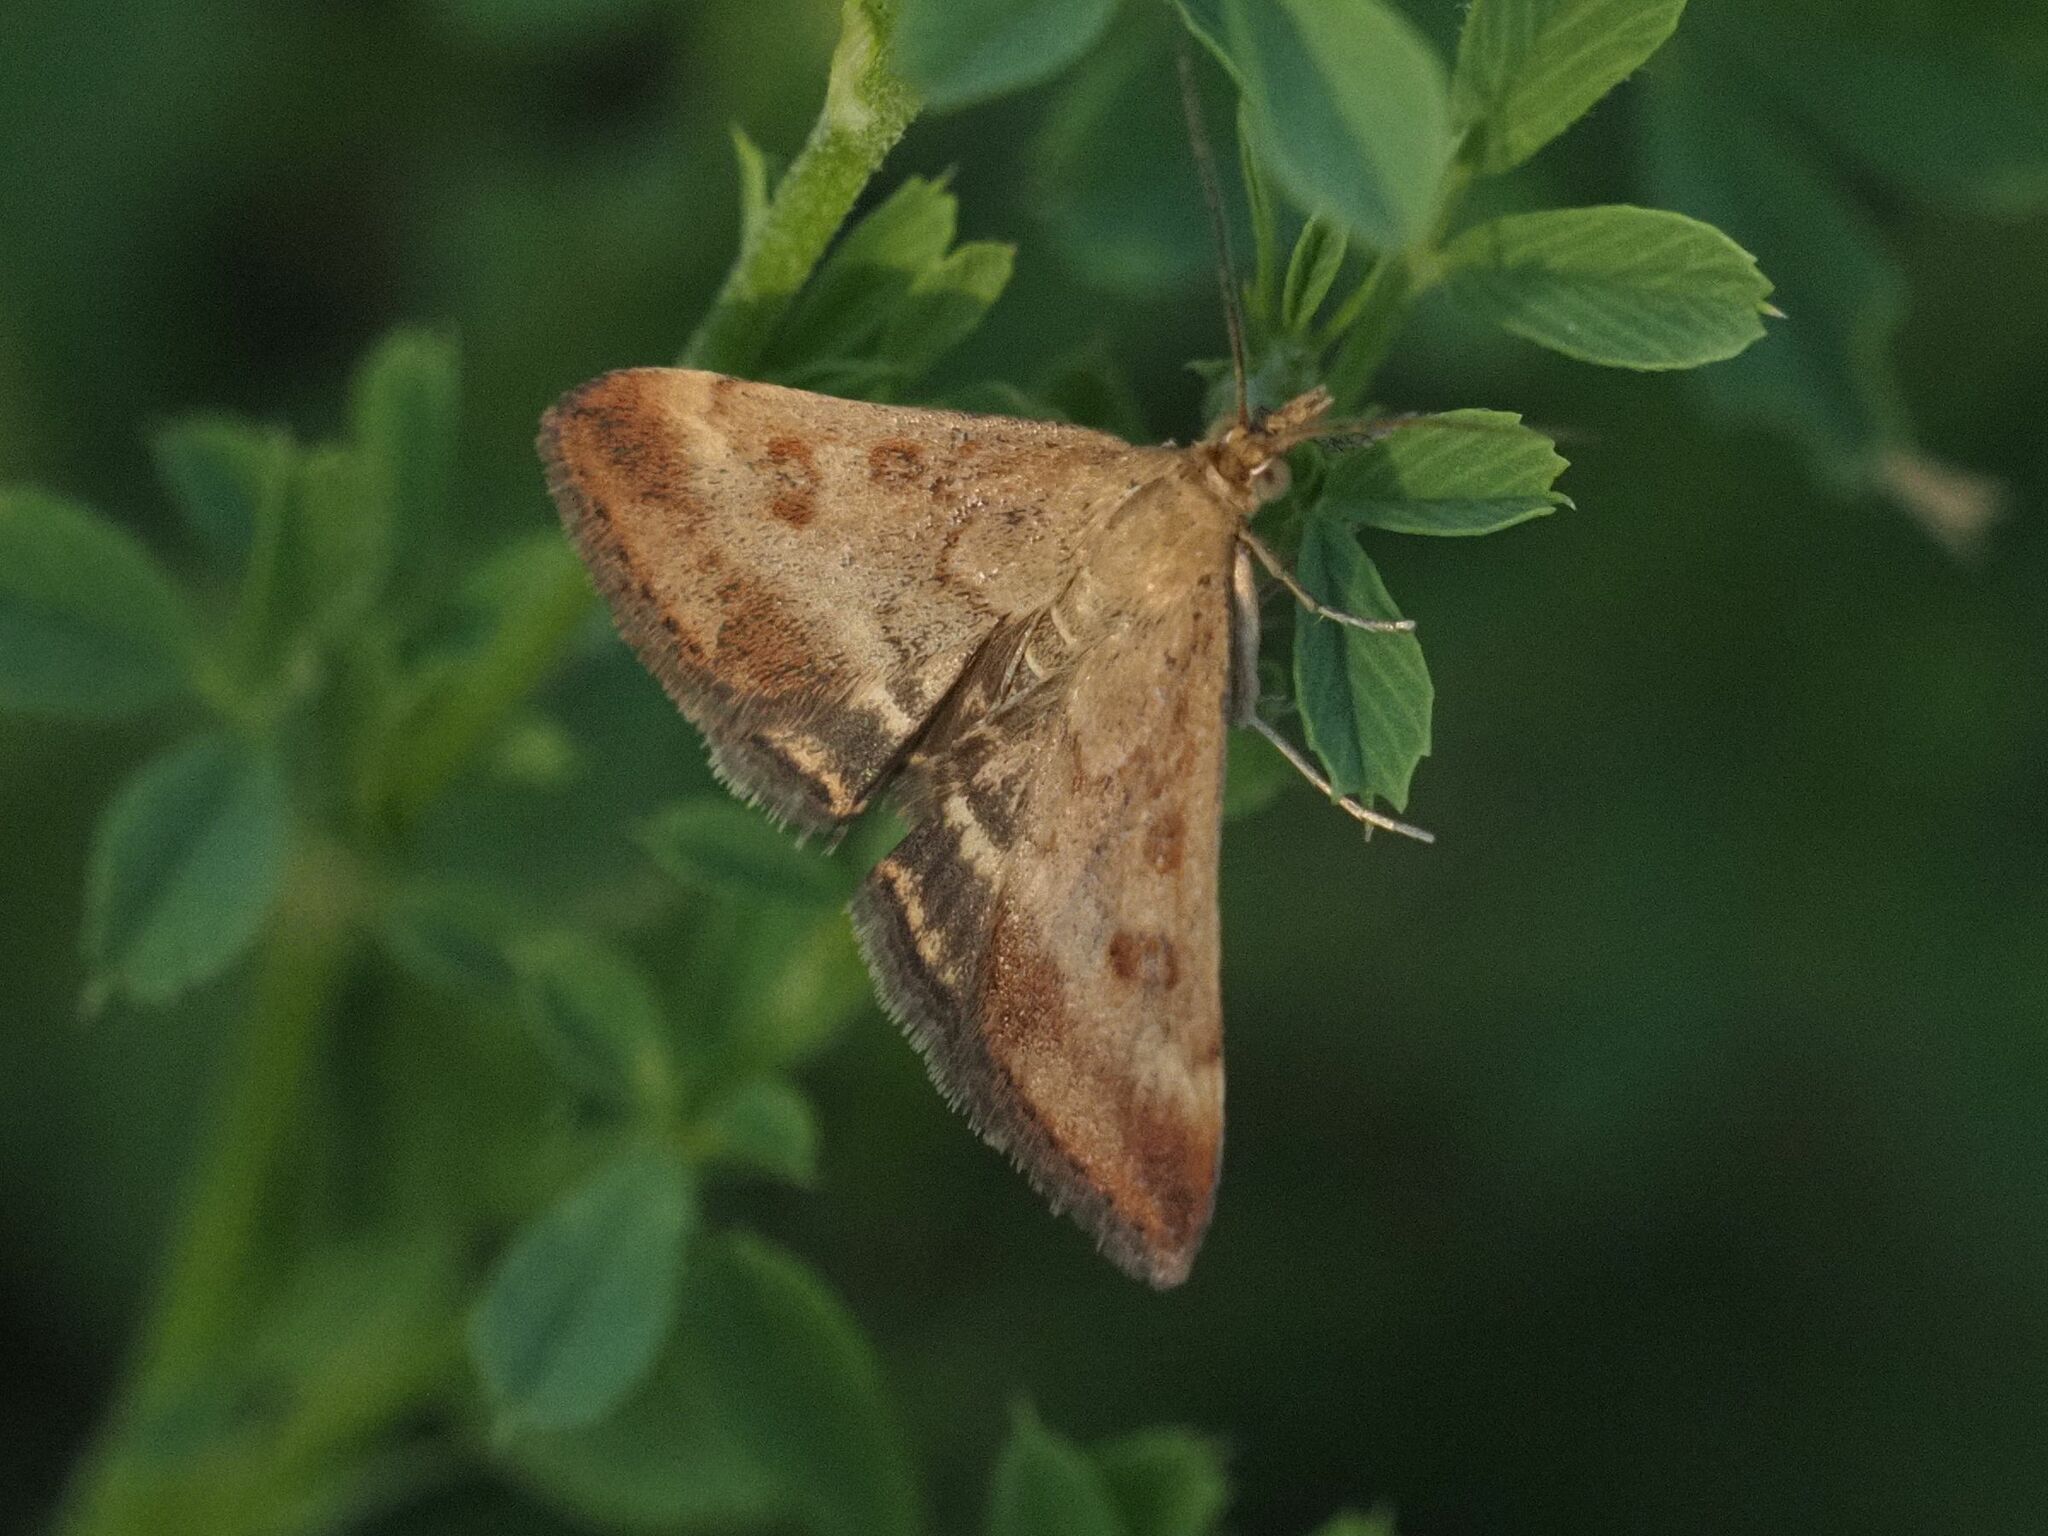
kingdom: Animalia
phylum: Arthropoda
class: Insecta
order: Lepidoptera
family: Crambidae
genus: Pyrausta
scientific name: Pyrausta despicata
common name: Straw-barred pearl
